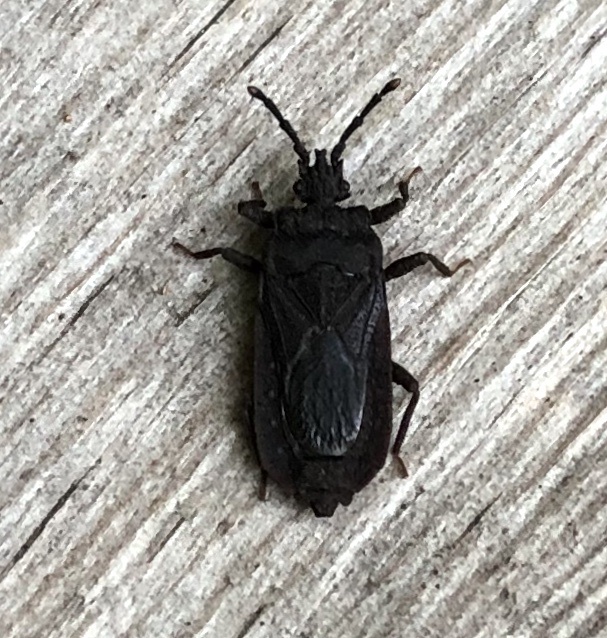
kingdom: Animalia
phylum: Arthropoda
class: Insecta
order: Hemiptera
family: Aradidae
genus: Brachyrhynchus
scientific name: Brachyrhynchus membranaceus
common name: Aradid flat bug
